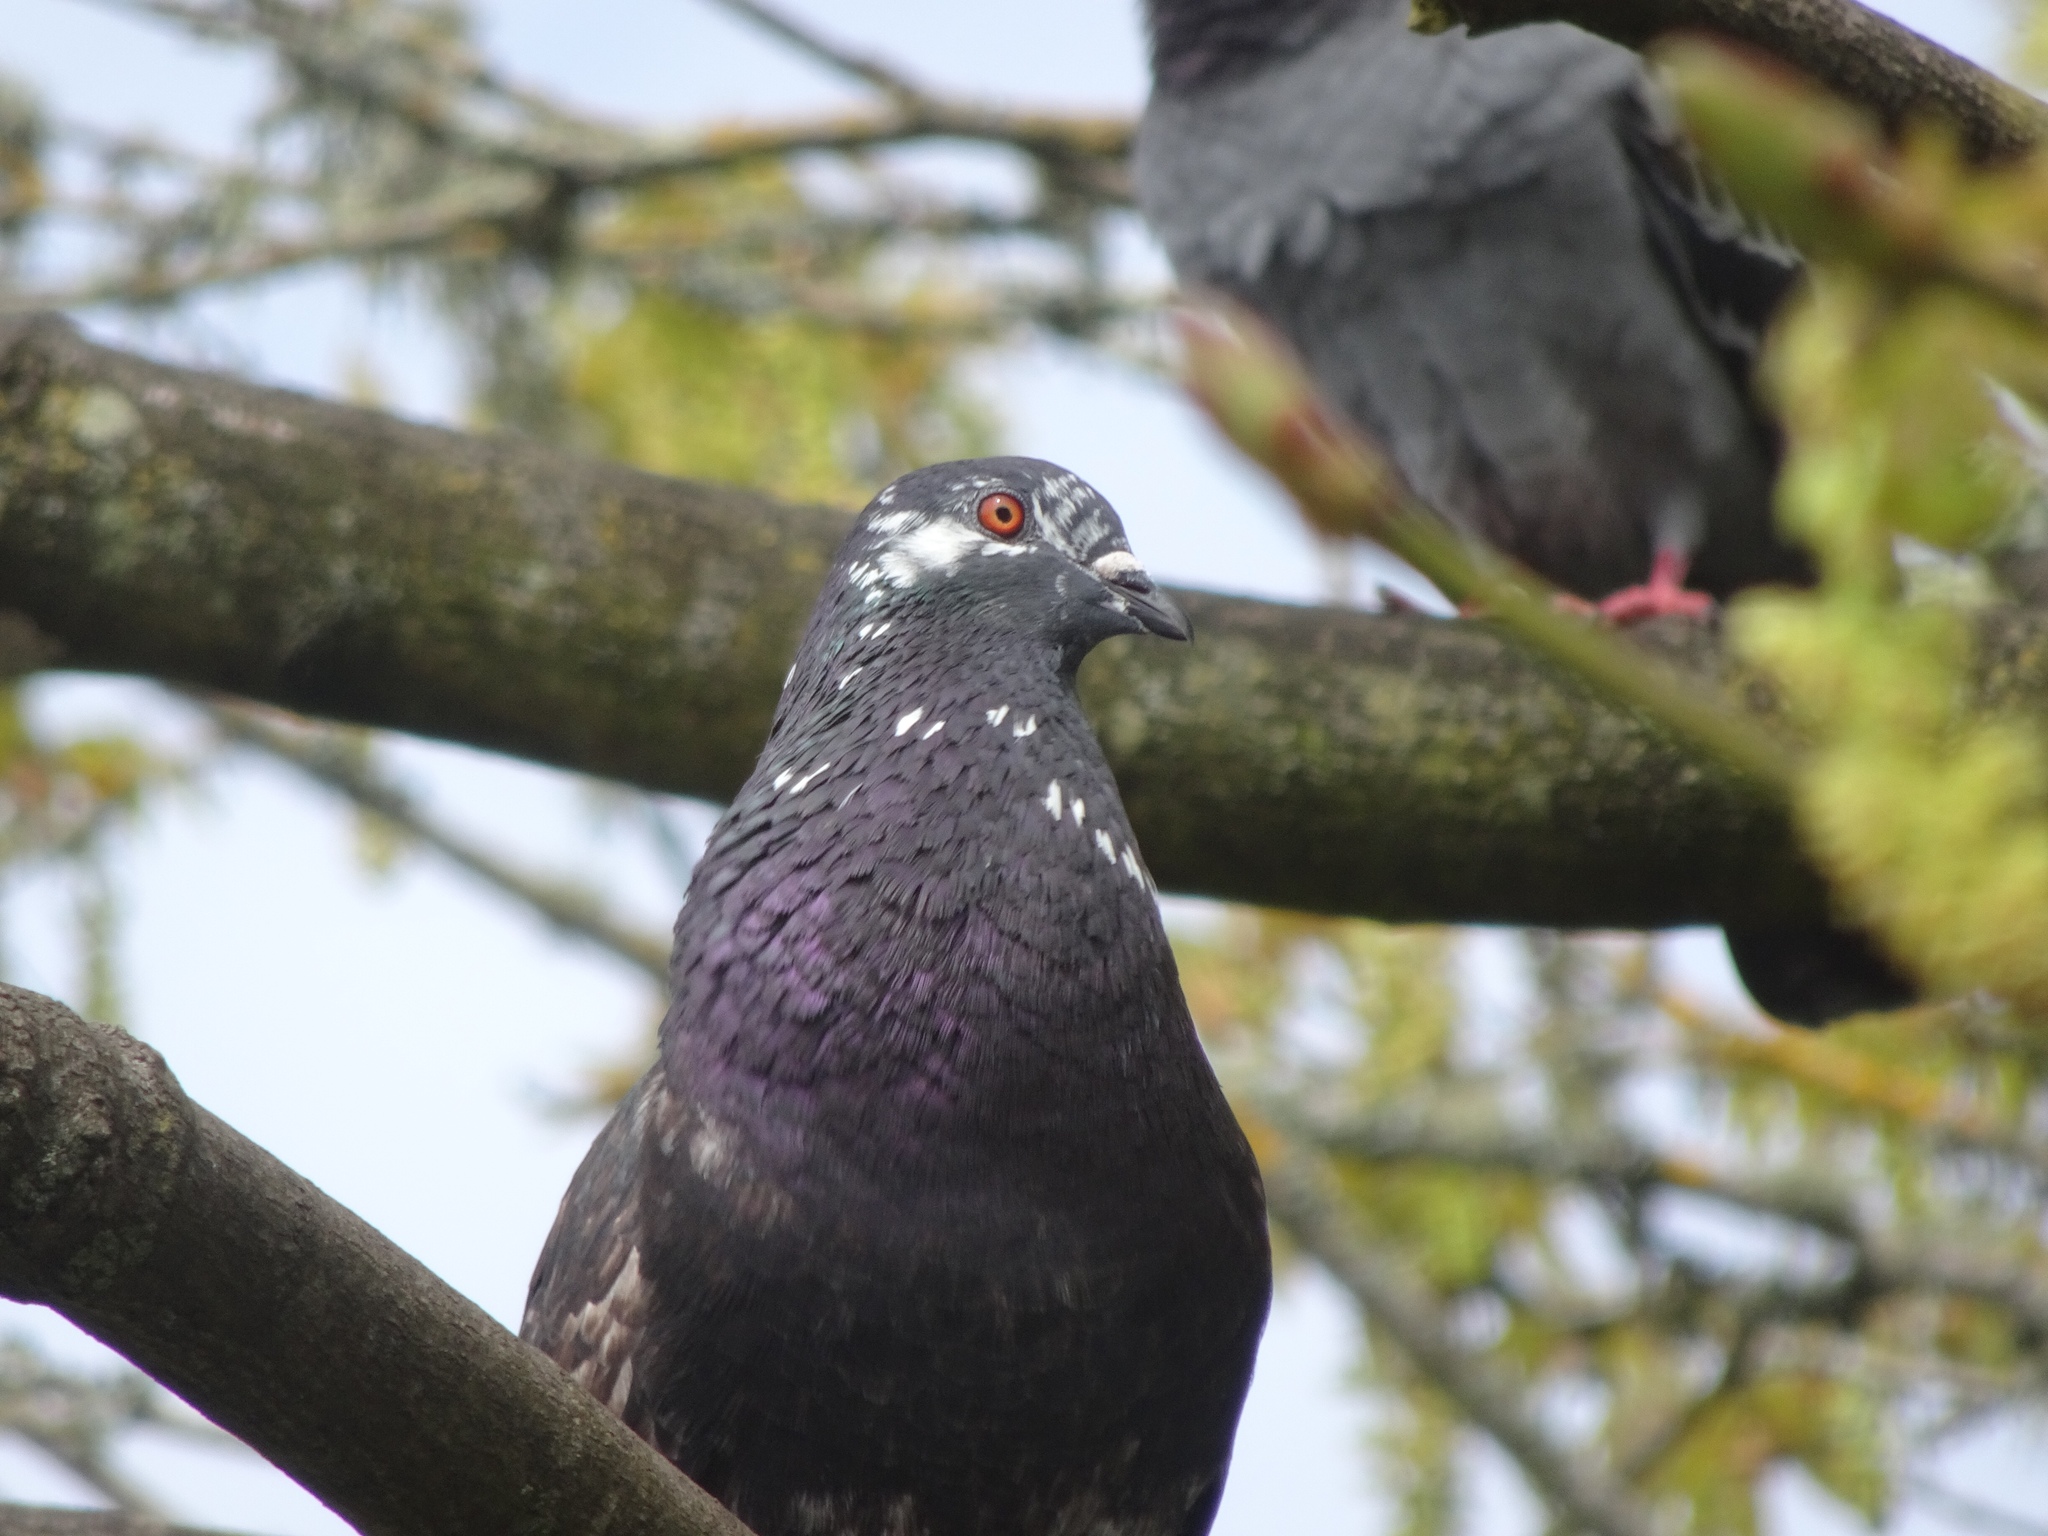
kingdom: Animalia
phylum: Chordata
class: Aves
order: Columbiformes
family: Columbidae
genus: Columba
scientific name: Columba livia
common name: Rock pigeon
